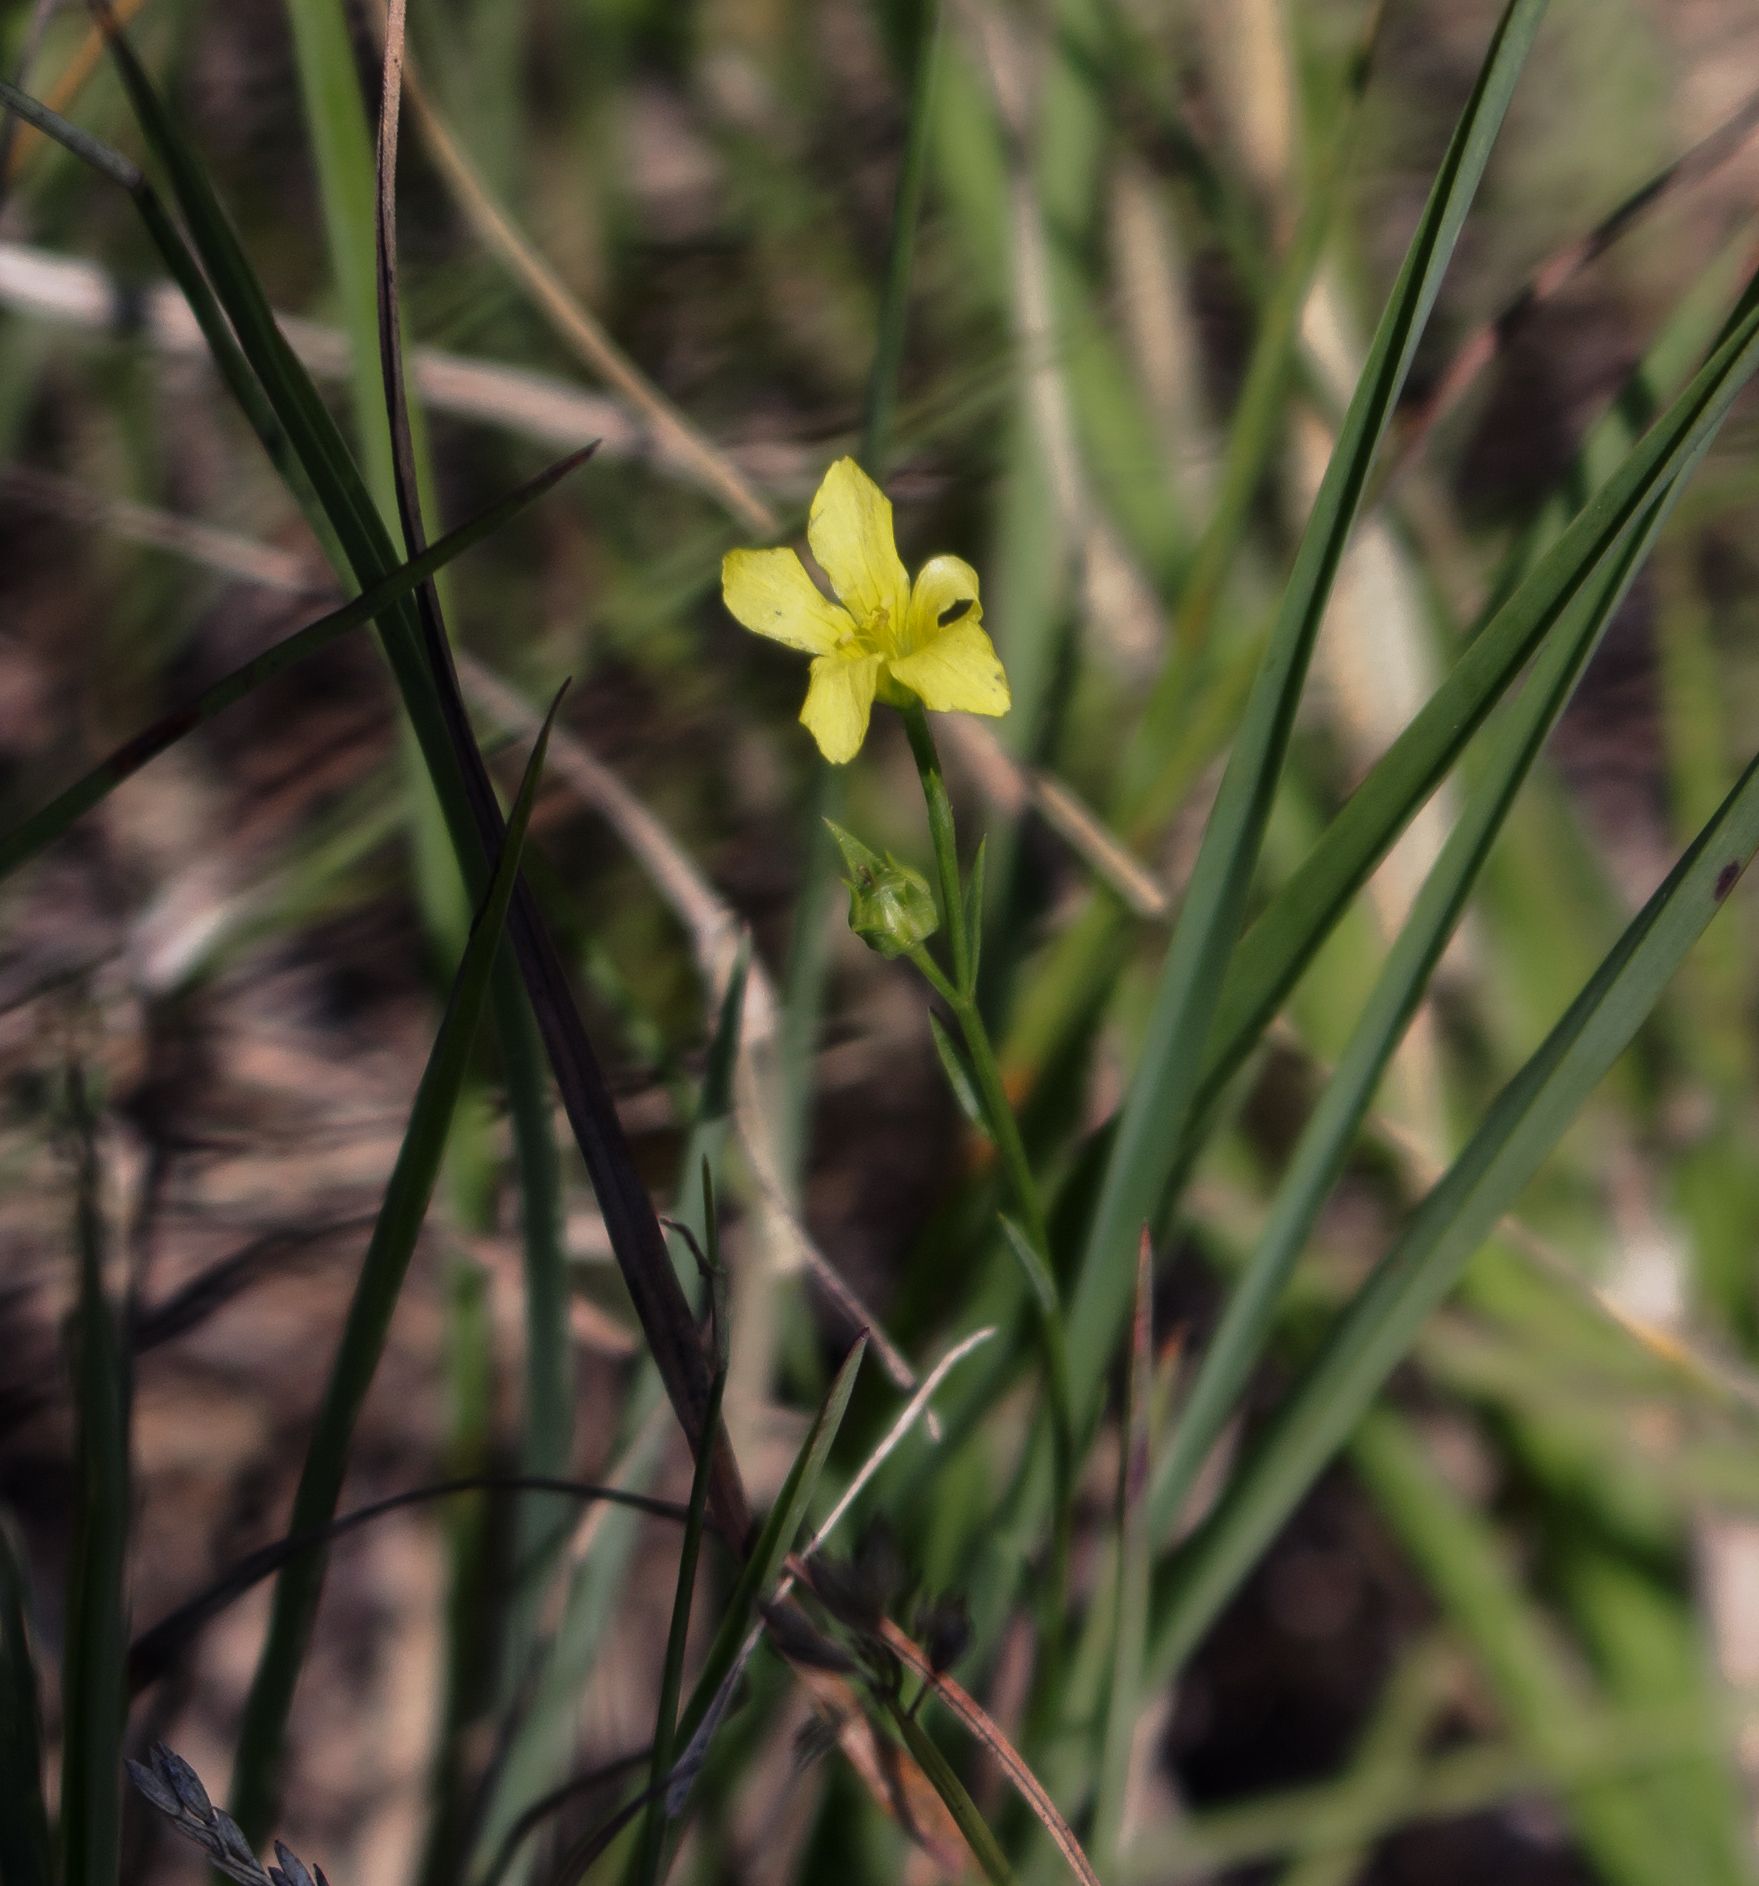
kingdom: Plantae
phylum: Tracheophyta
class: Magnoliopsida
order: Malpighiales
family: Linaceae
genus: Linum
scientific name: Linum sulcatum
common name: Grooved flax
